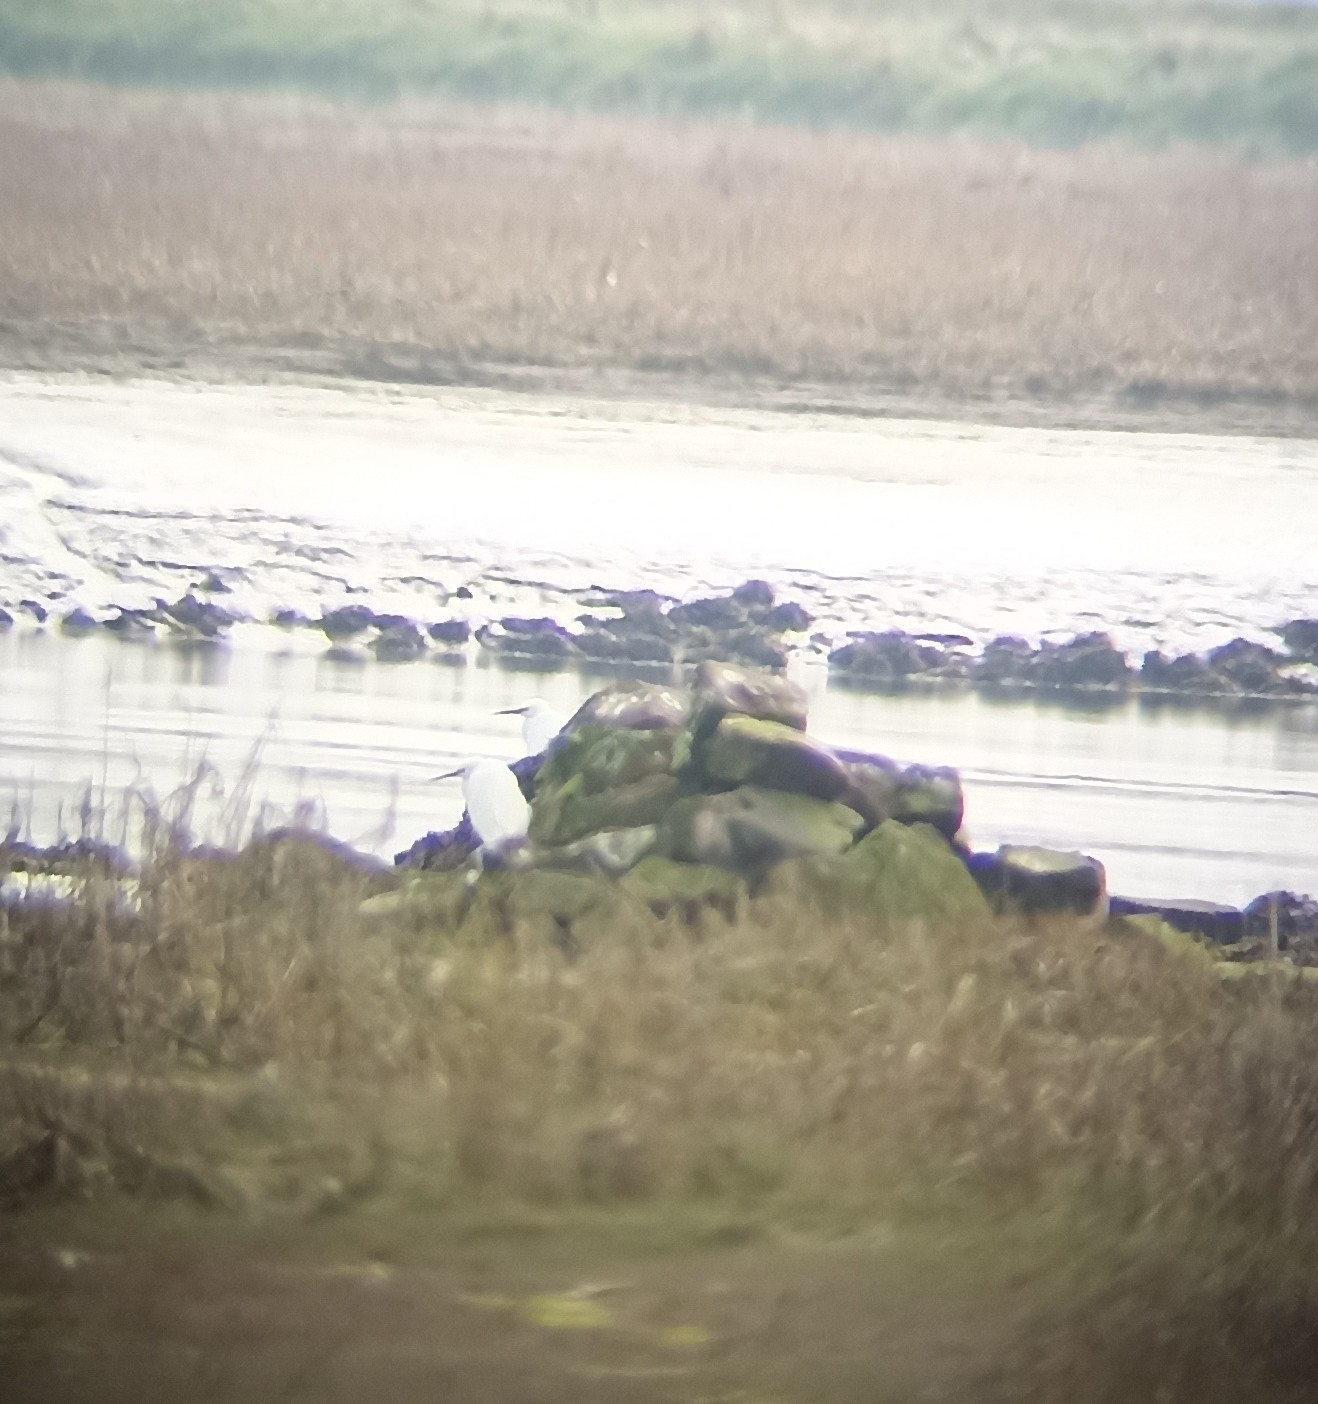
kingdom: Animalia
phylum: Chordata
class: Aves
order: Pelecaniformes
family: Ardeidae
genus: Egretta
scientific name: Egretta garzetta
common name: Little egret
